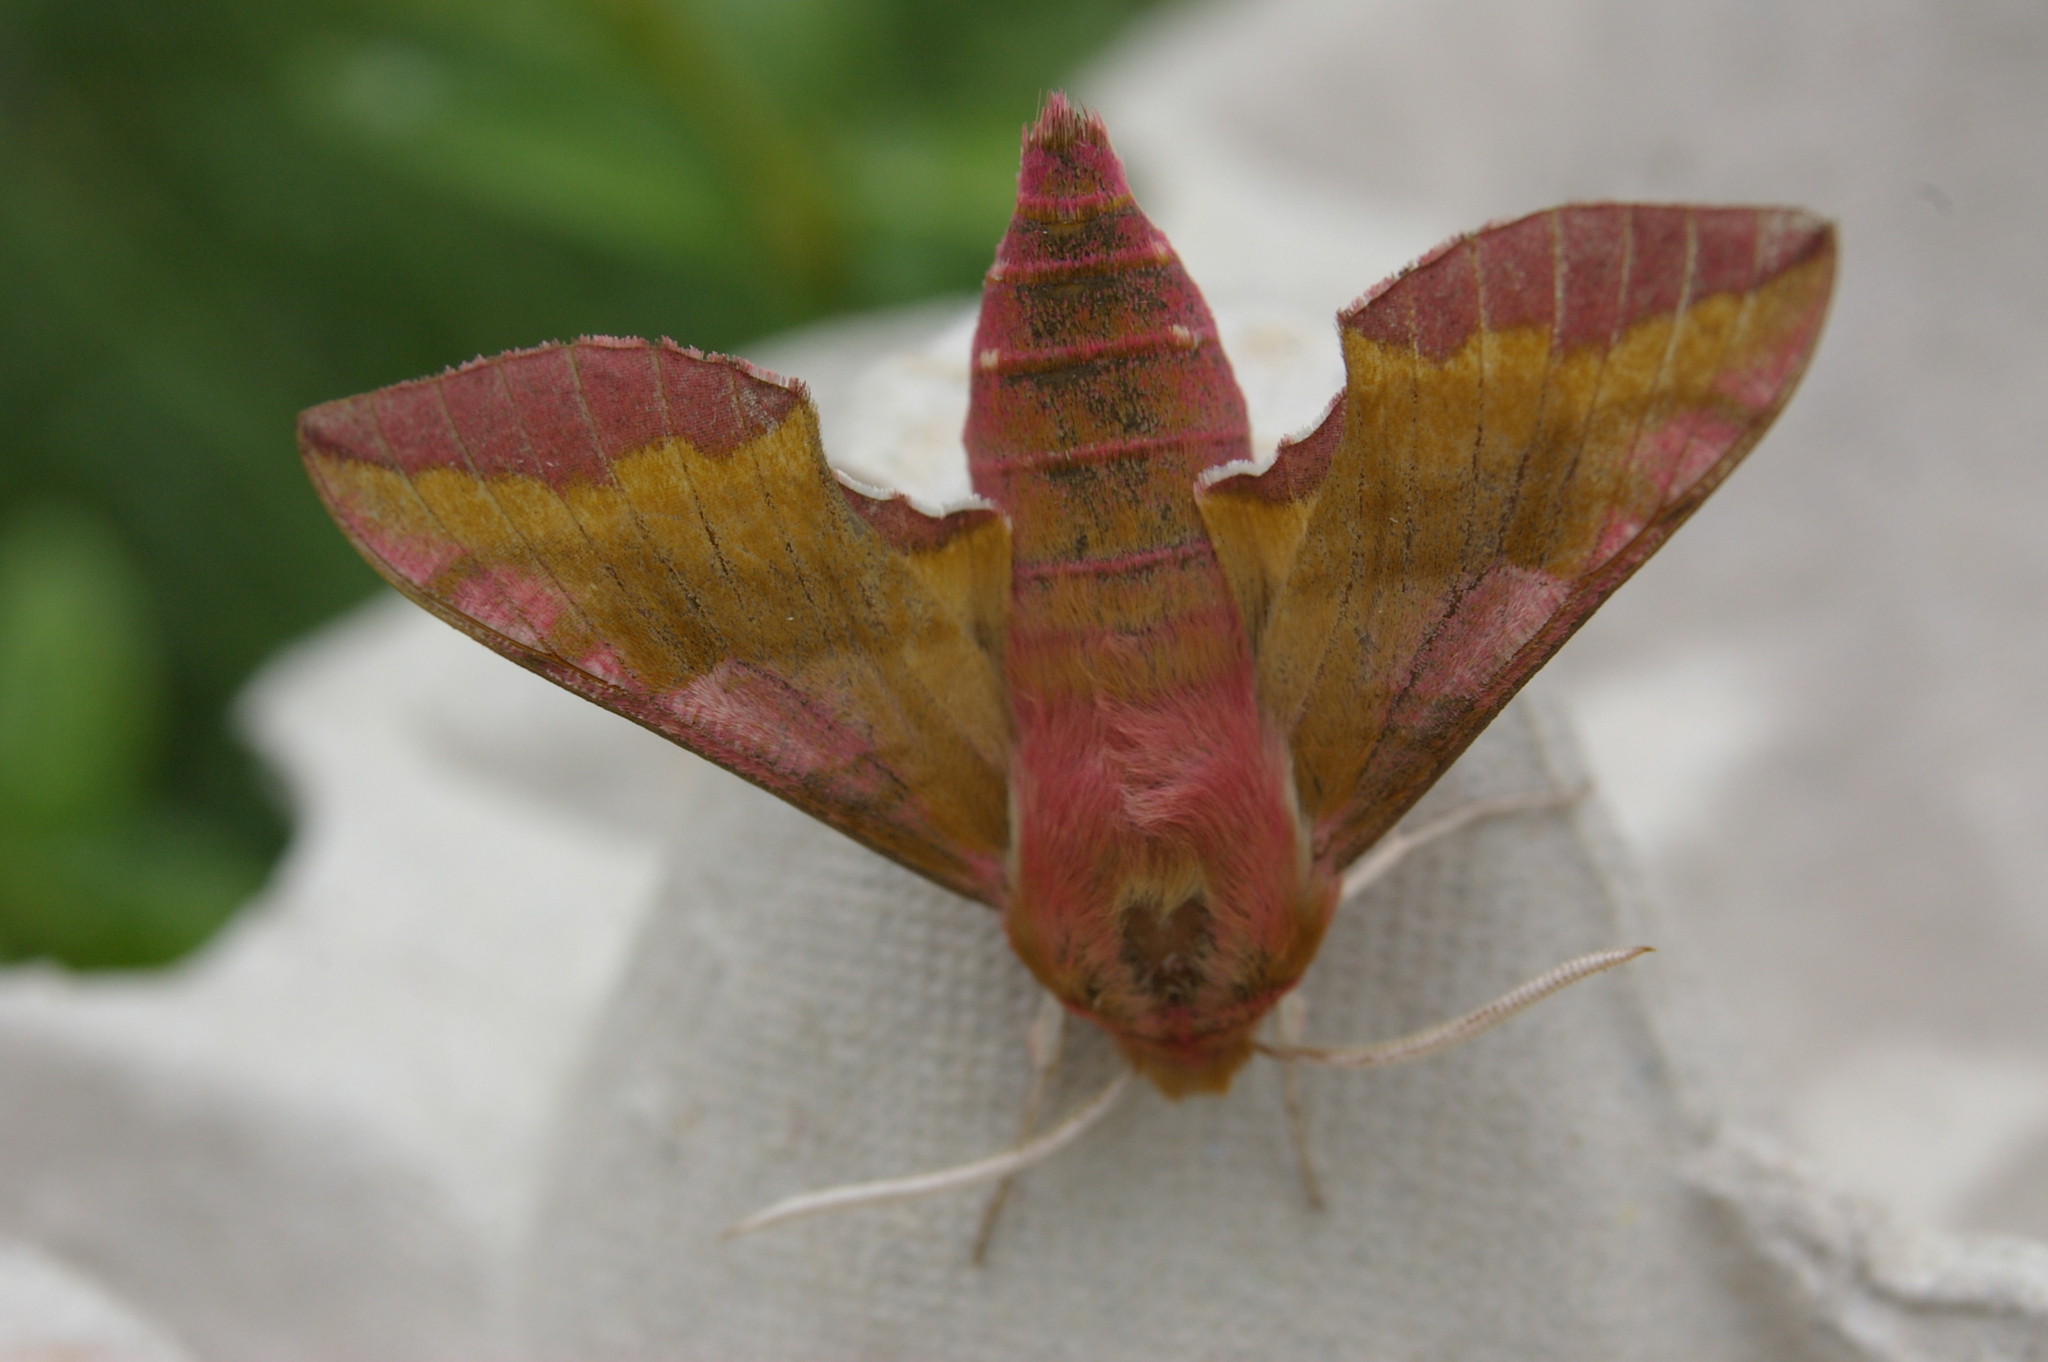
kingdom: Animalia
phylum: Arthropoda
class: Insecta
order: Lepidoptera
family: Sphingidae
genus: Deilephila
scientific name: Deilephila porcellus
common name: Small elephant hawk-moth
